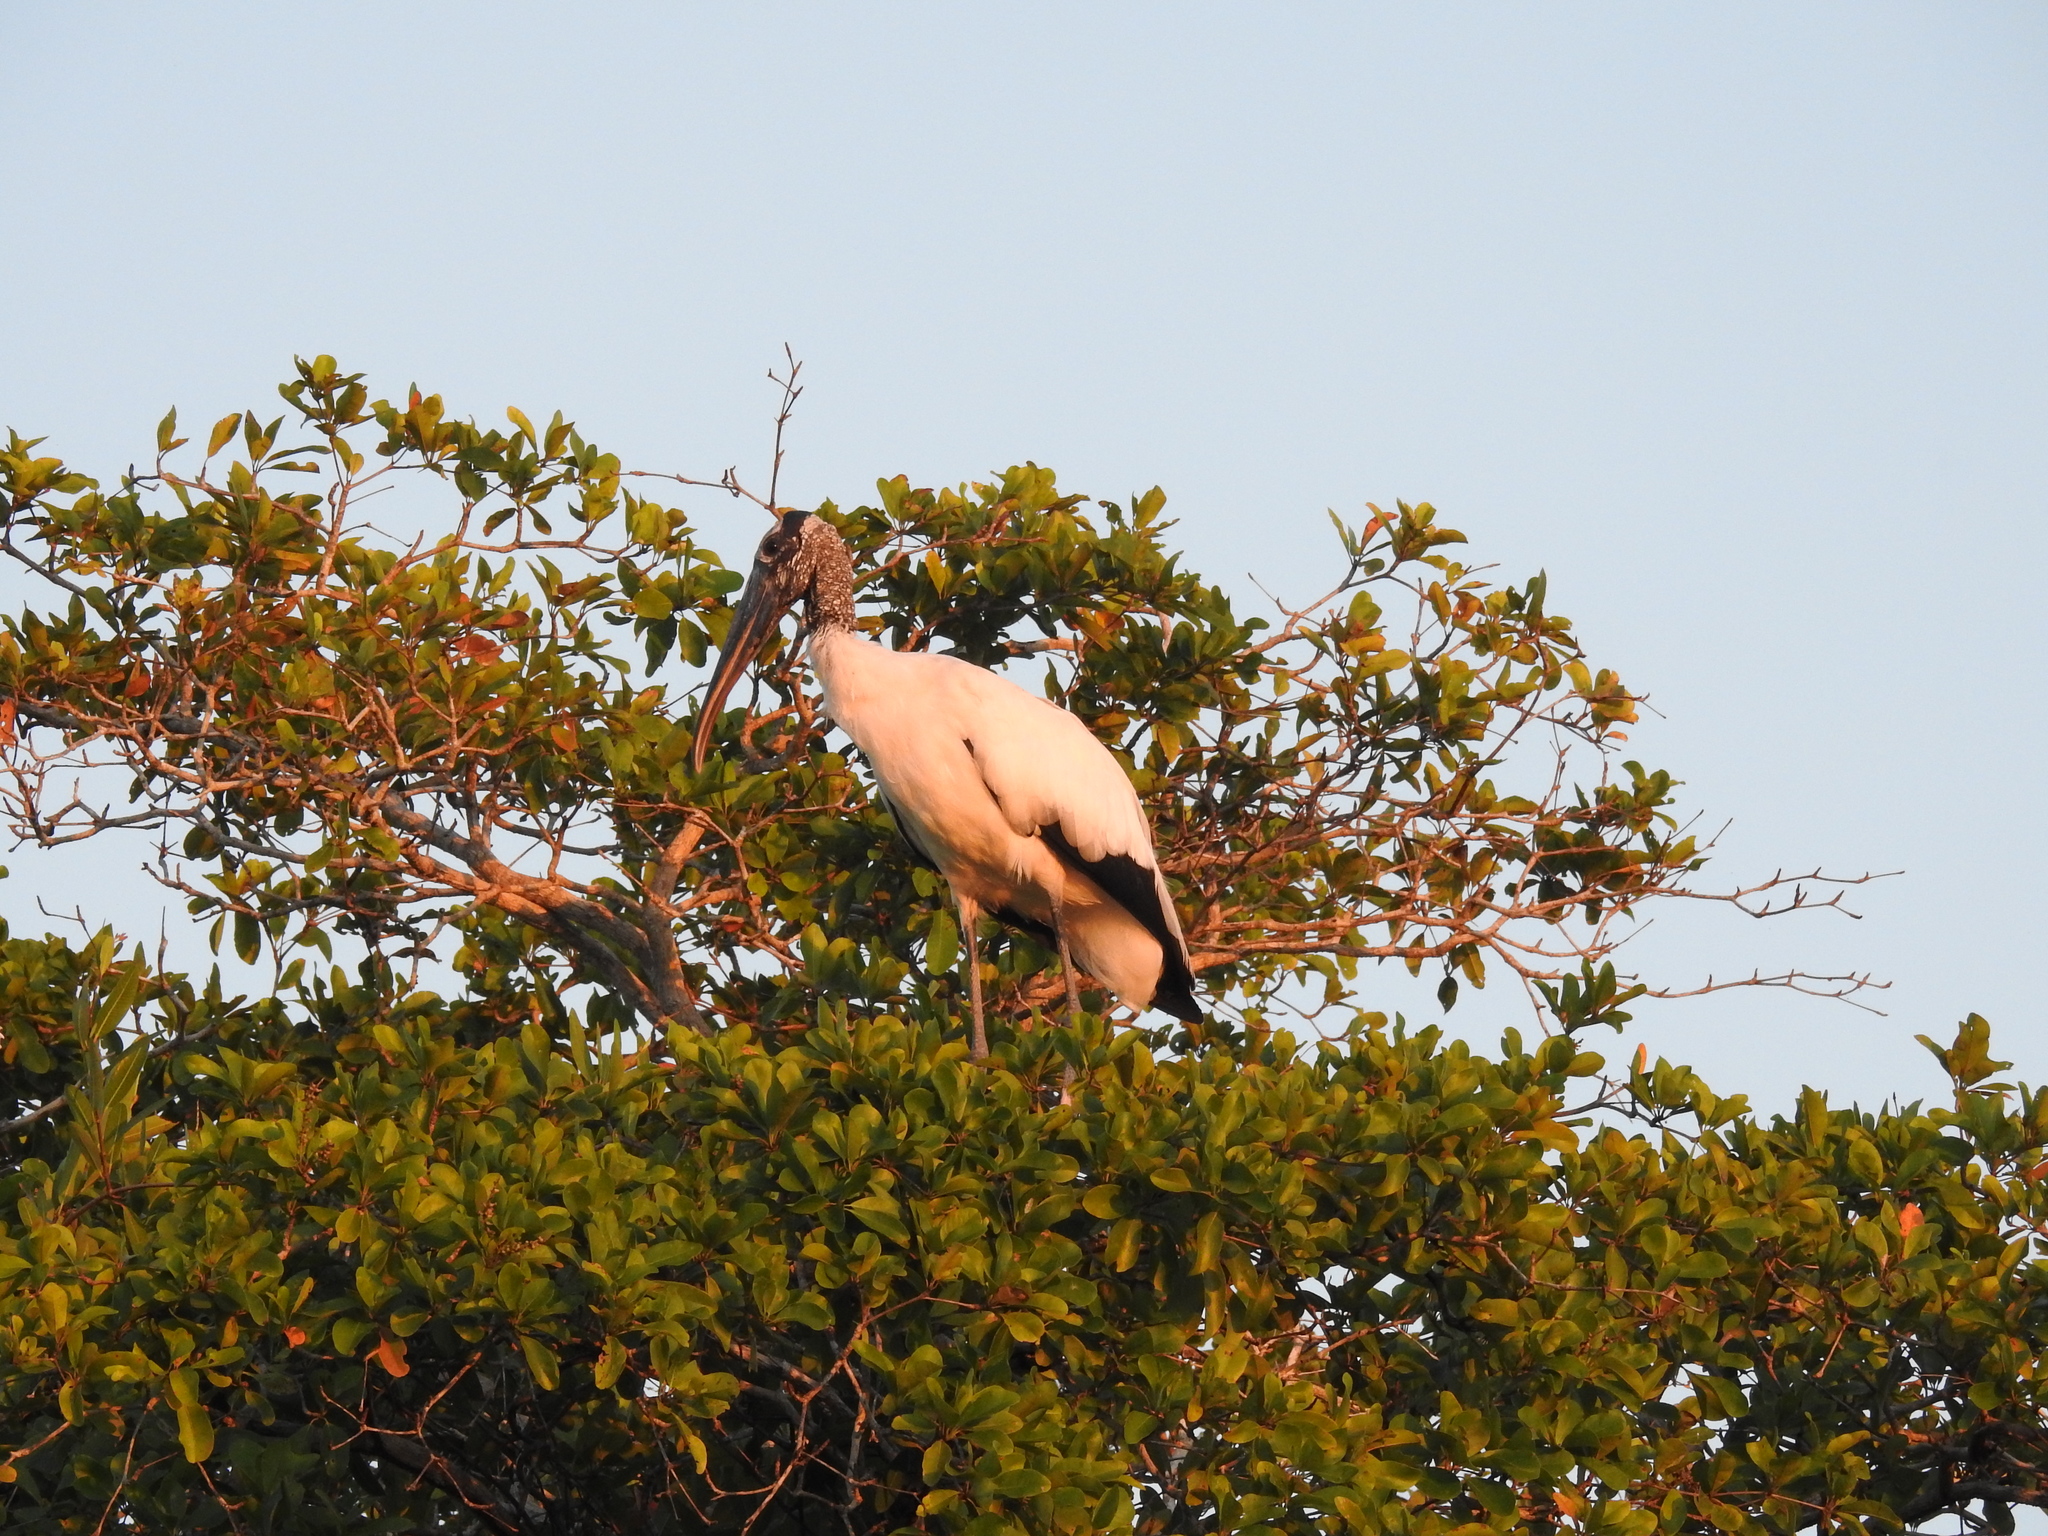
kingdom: Animalia
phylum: Chordata
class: Aves
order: Ciconiiformes
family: Ciconiidae
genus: Mycteria
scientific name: Mycteria americana
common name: Wood stork
